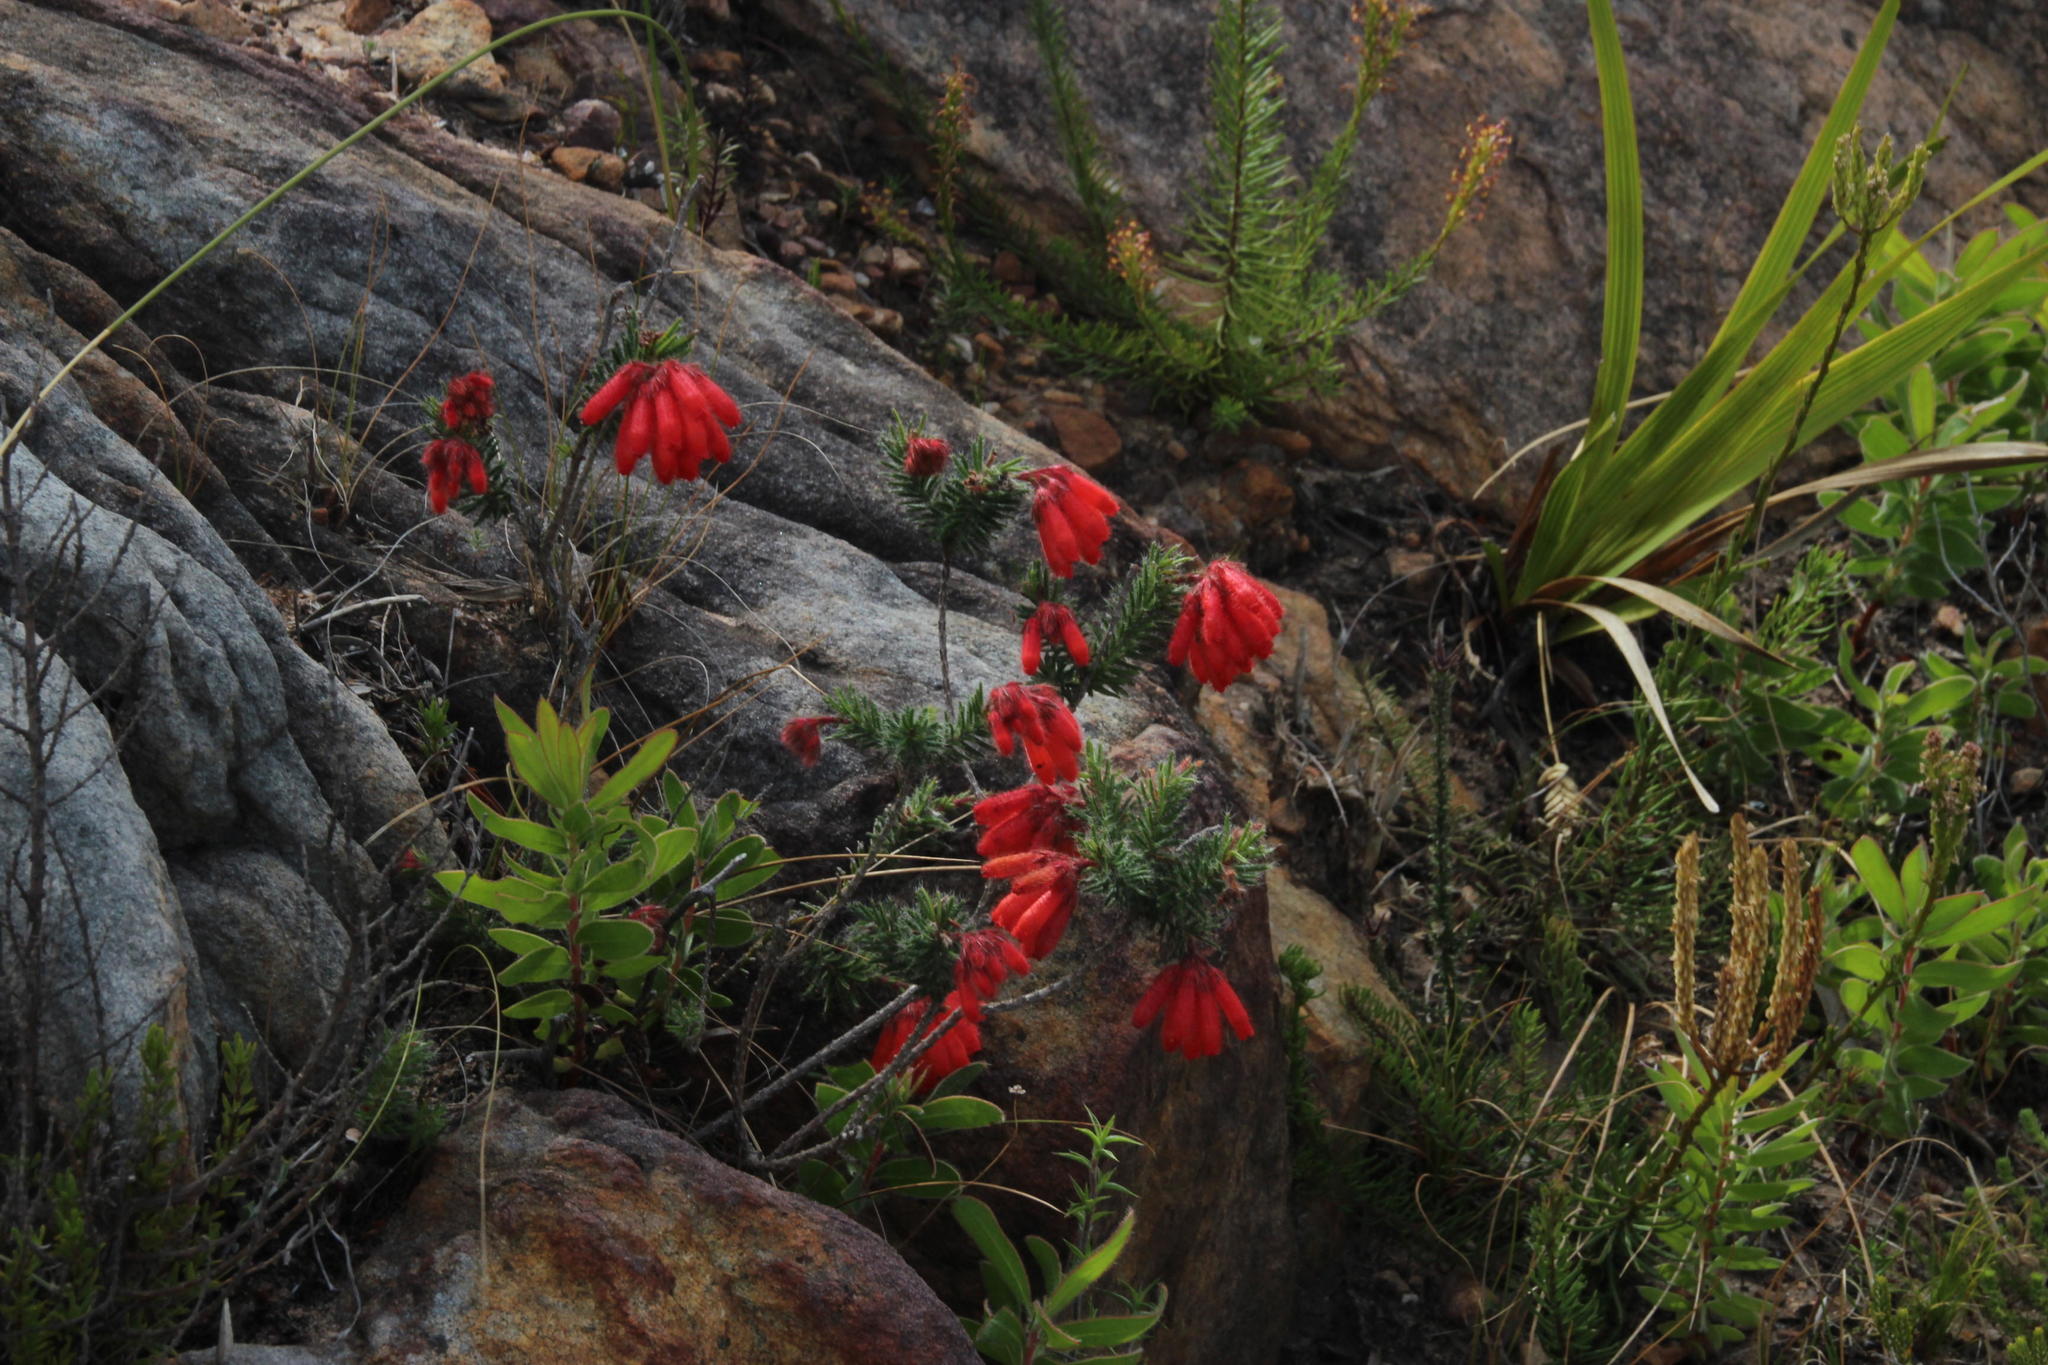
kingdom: Plantae
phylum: Tracheophyta
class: Magnoliopsida
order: Ericales
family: Ericaceae
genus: Erica
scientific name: Erica cerinthoides
